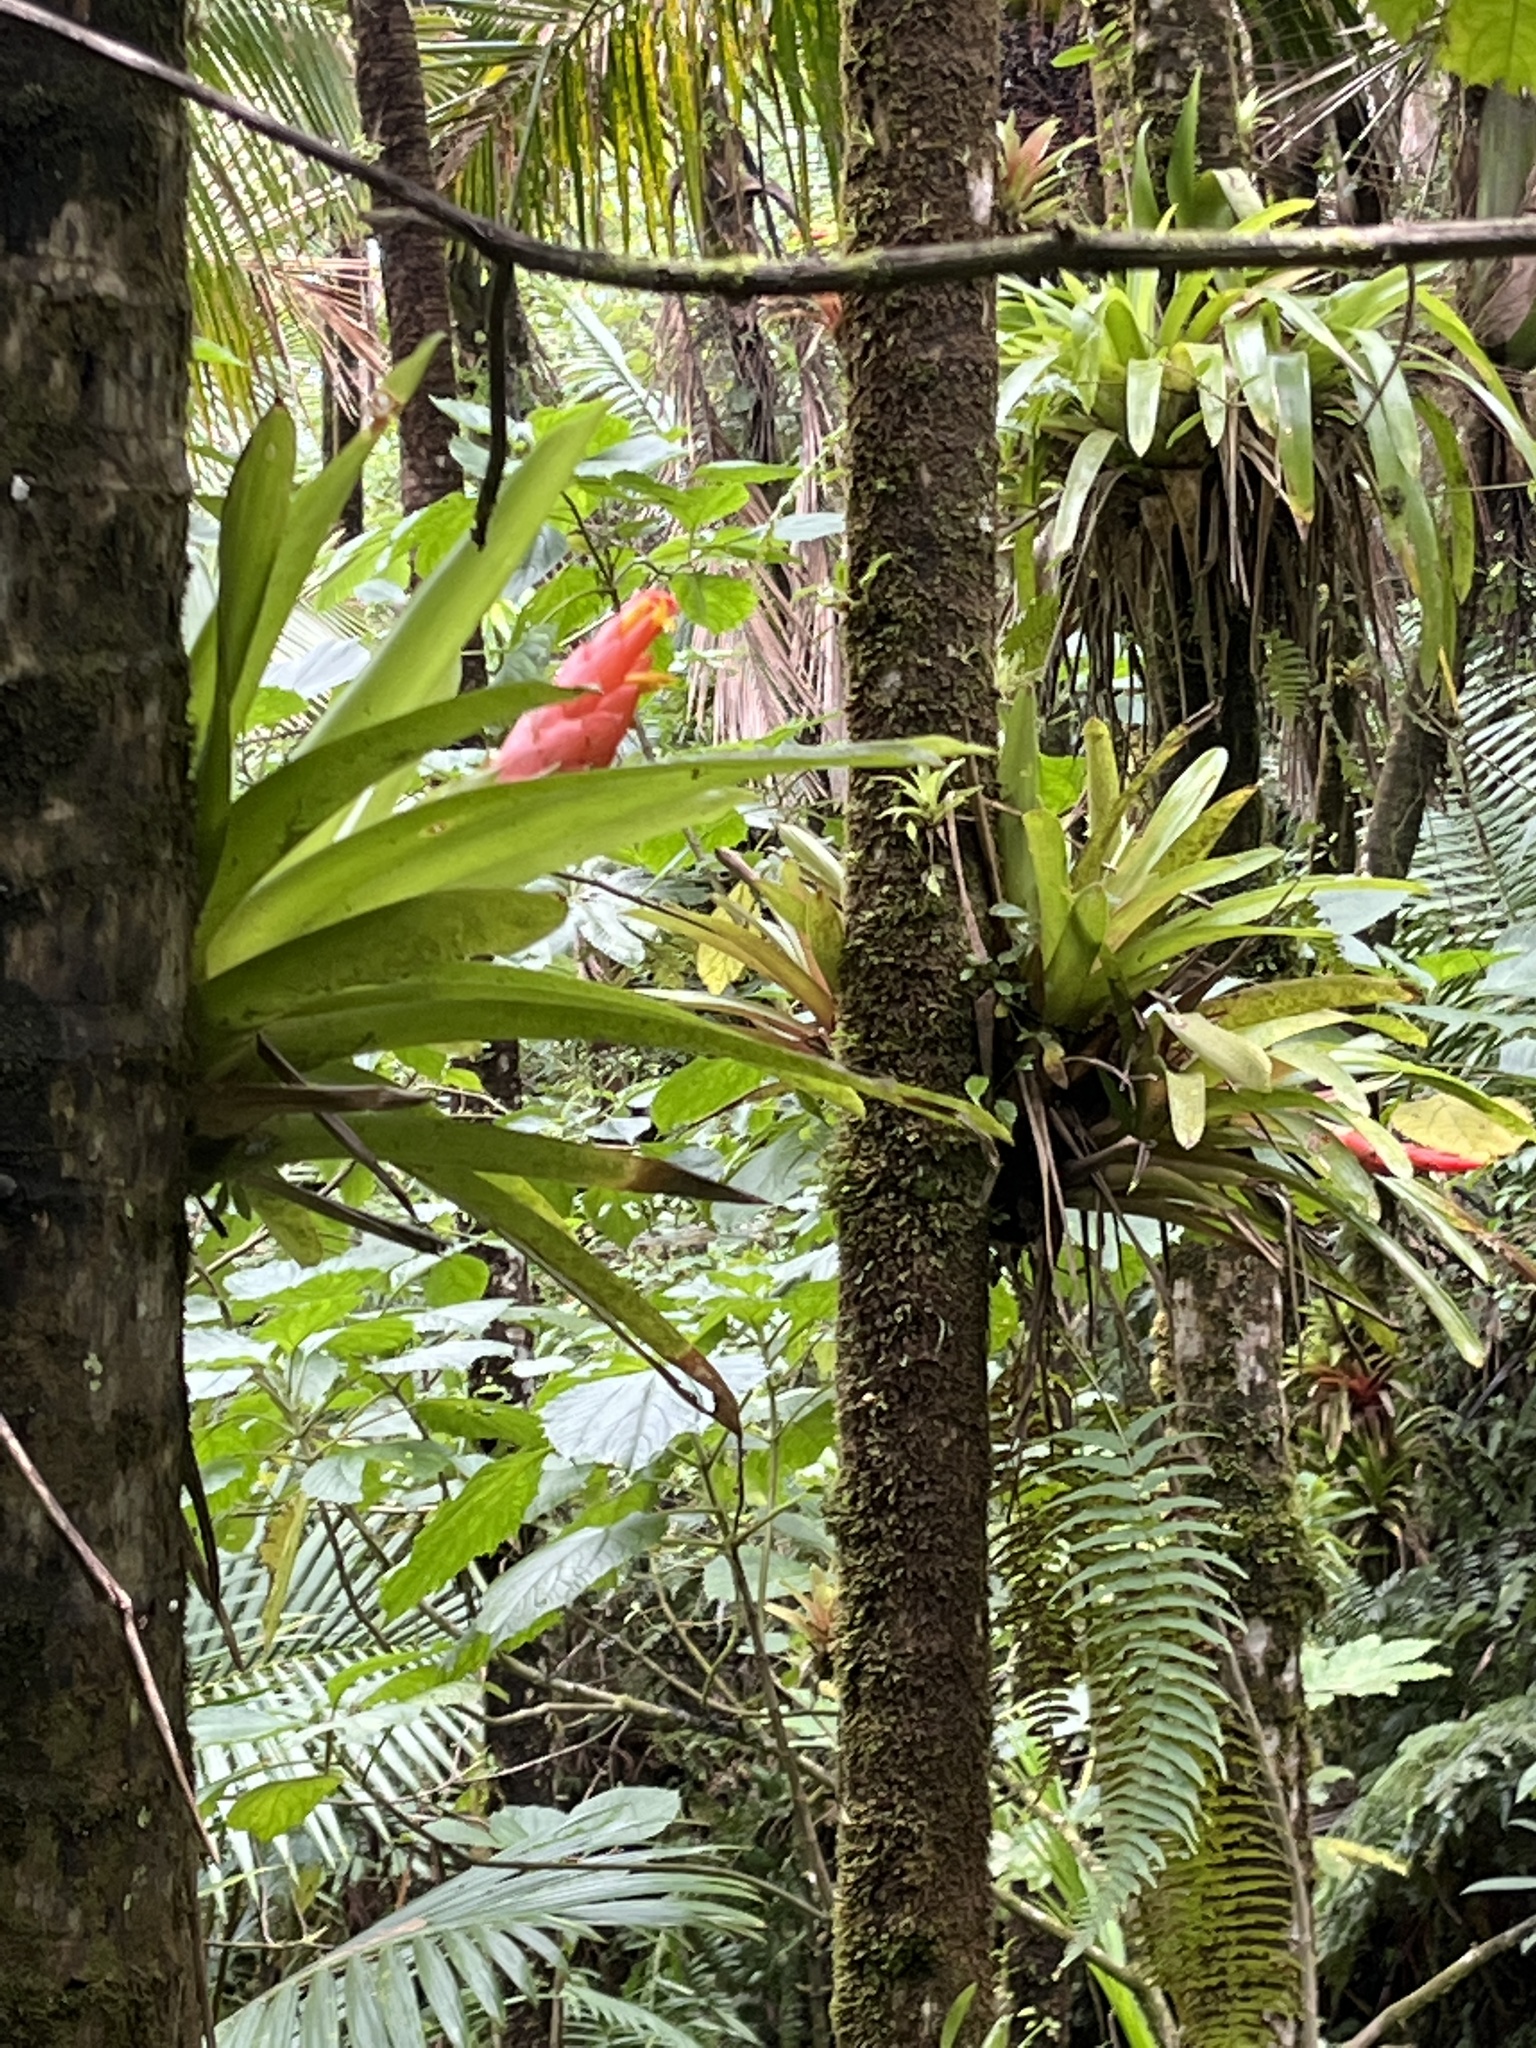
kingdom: Plantae
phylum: Tracheophyta
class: Liliopsida
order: Poales
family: Bromeliaceae
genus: Guzmania
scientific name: Guzmania berteroniana
